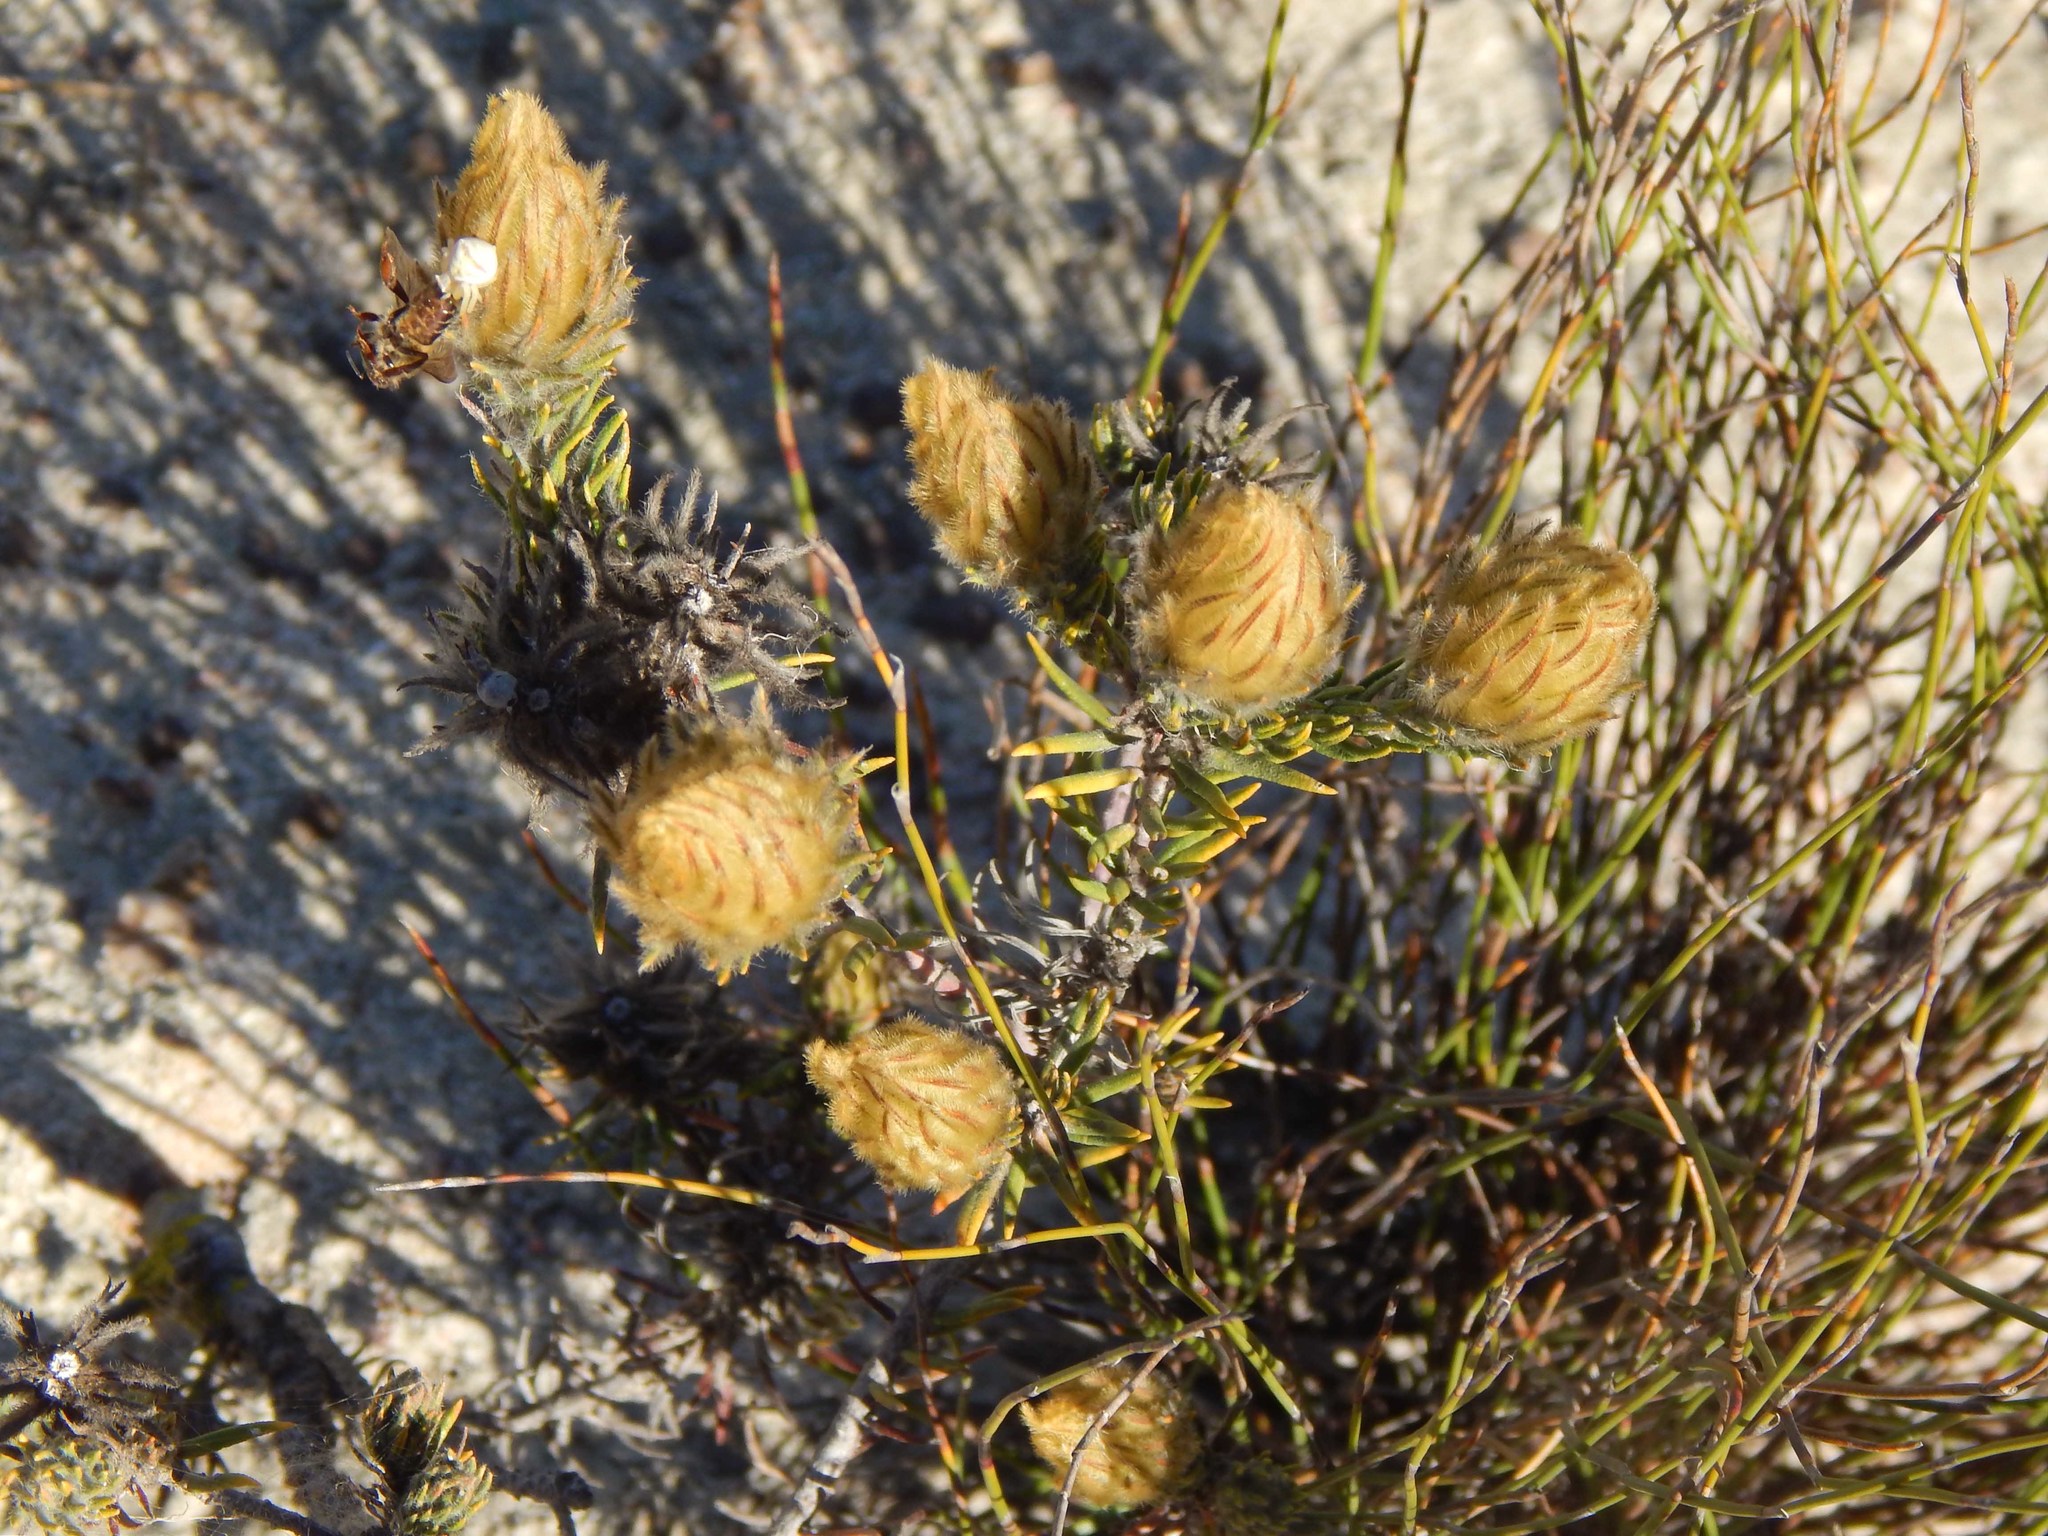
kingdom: Plantae
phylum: Tracheophyta
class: Magnoliopsida
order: Rosales
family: Rhamnaceae
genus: Phylica
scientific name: Phylica plumosa
